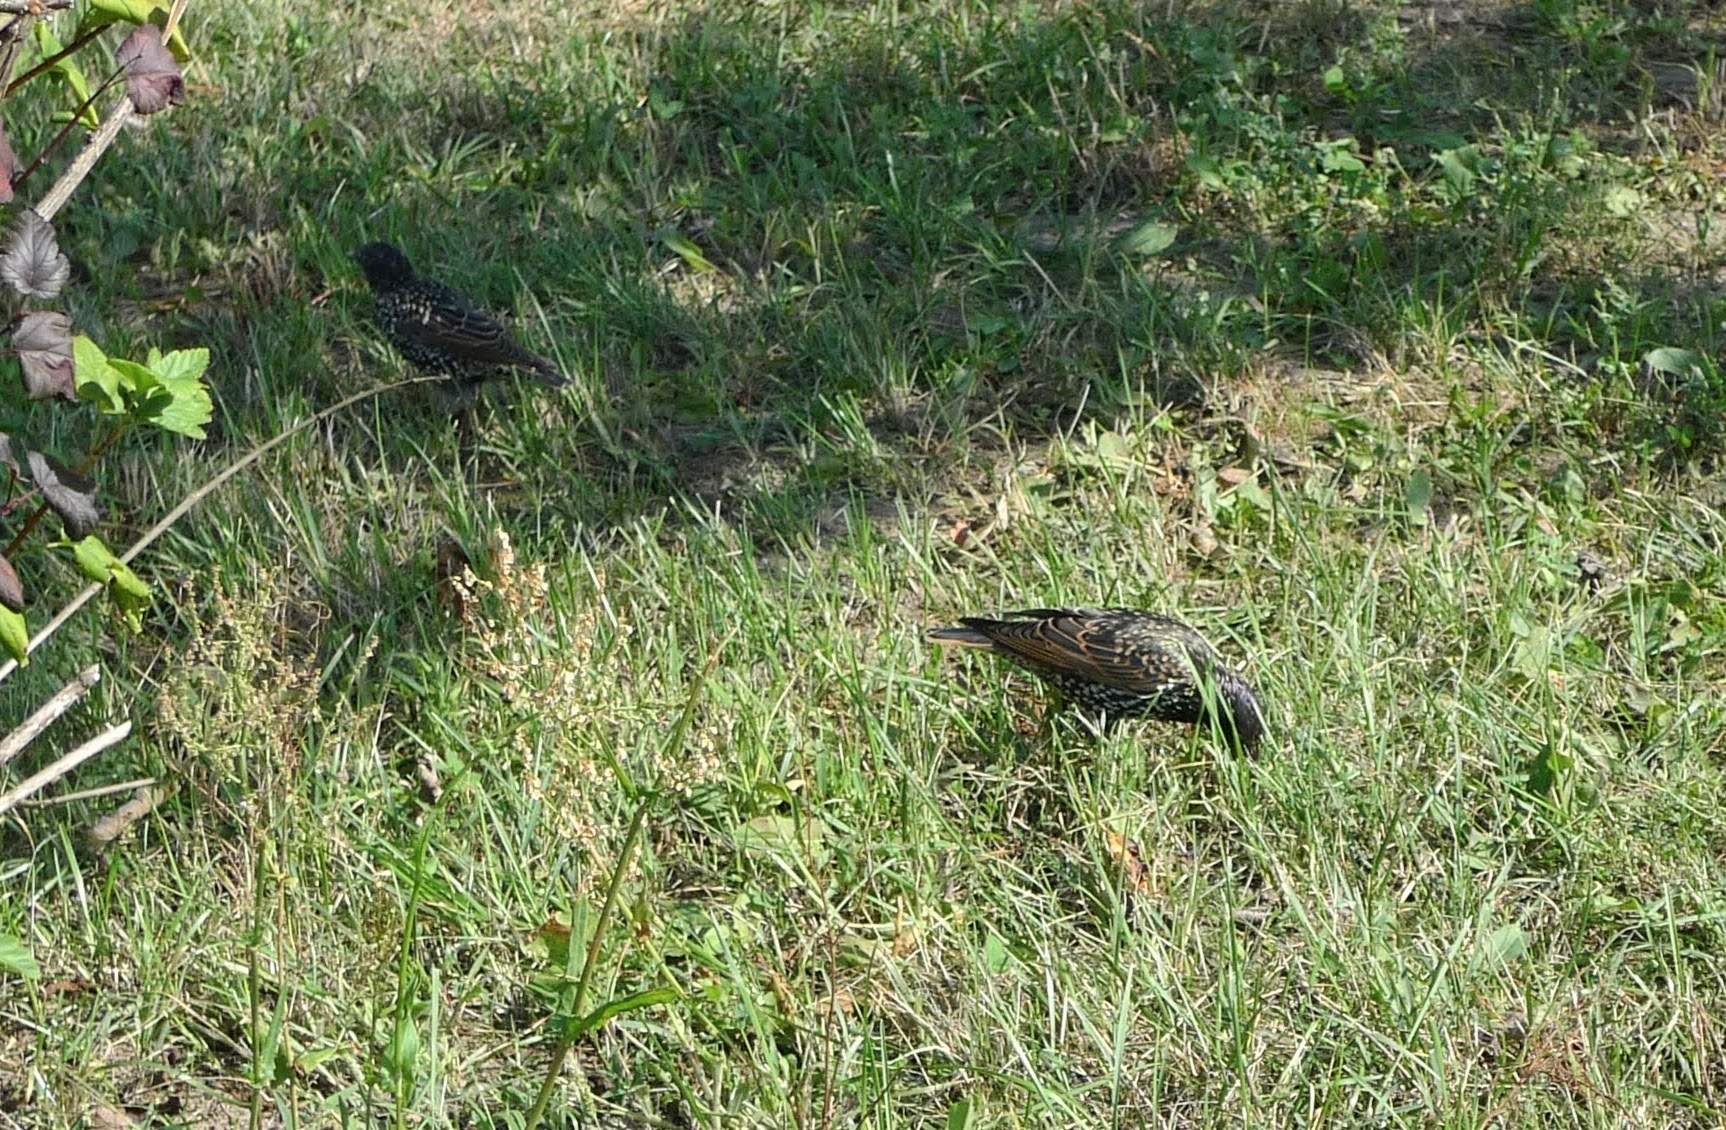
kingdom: Animalia
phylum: Chordata
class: Aves
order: Passeriformes
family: Sturnidae
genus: Sturnus
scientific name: Sturnus vulgaris
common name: Common starling
